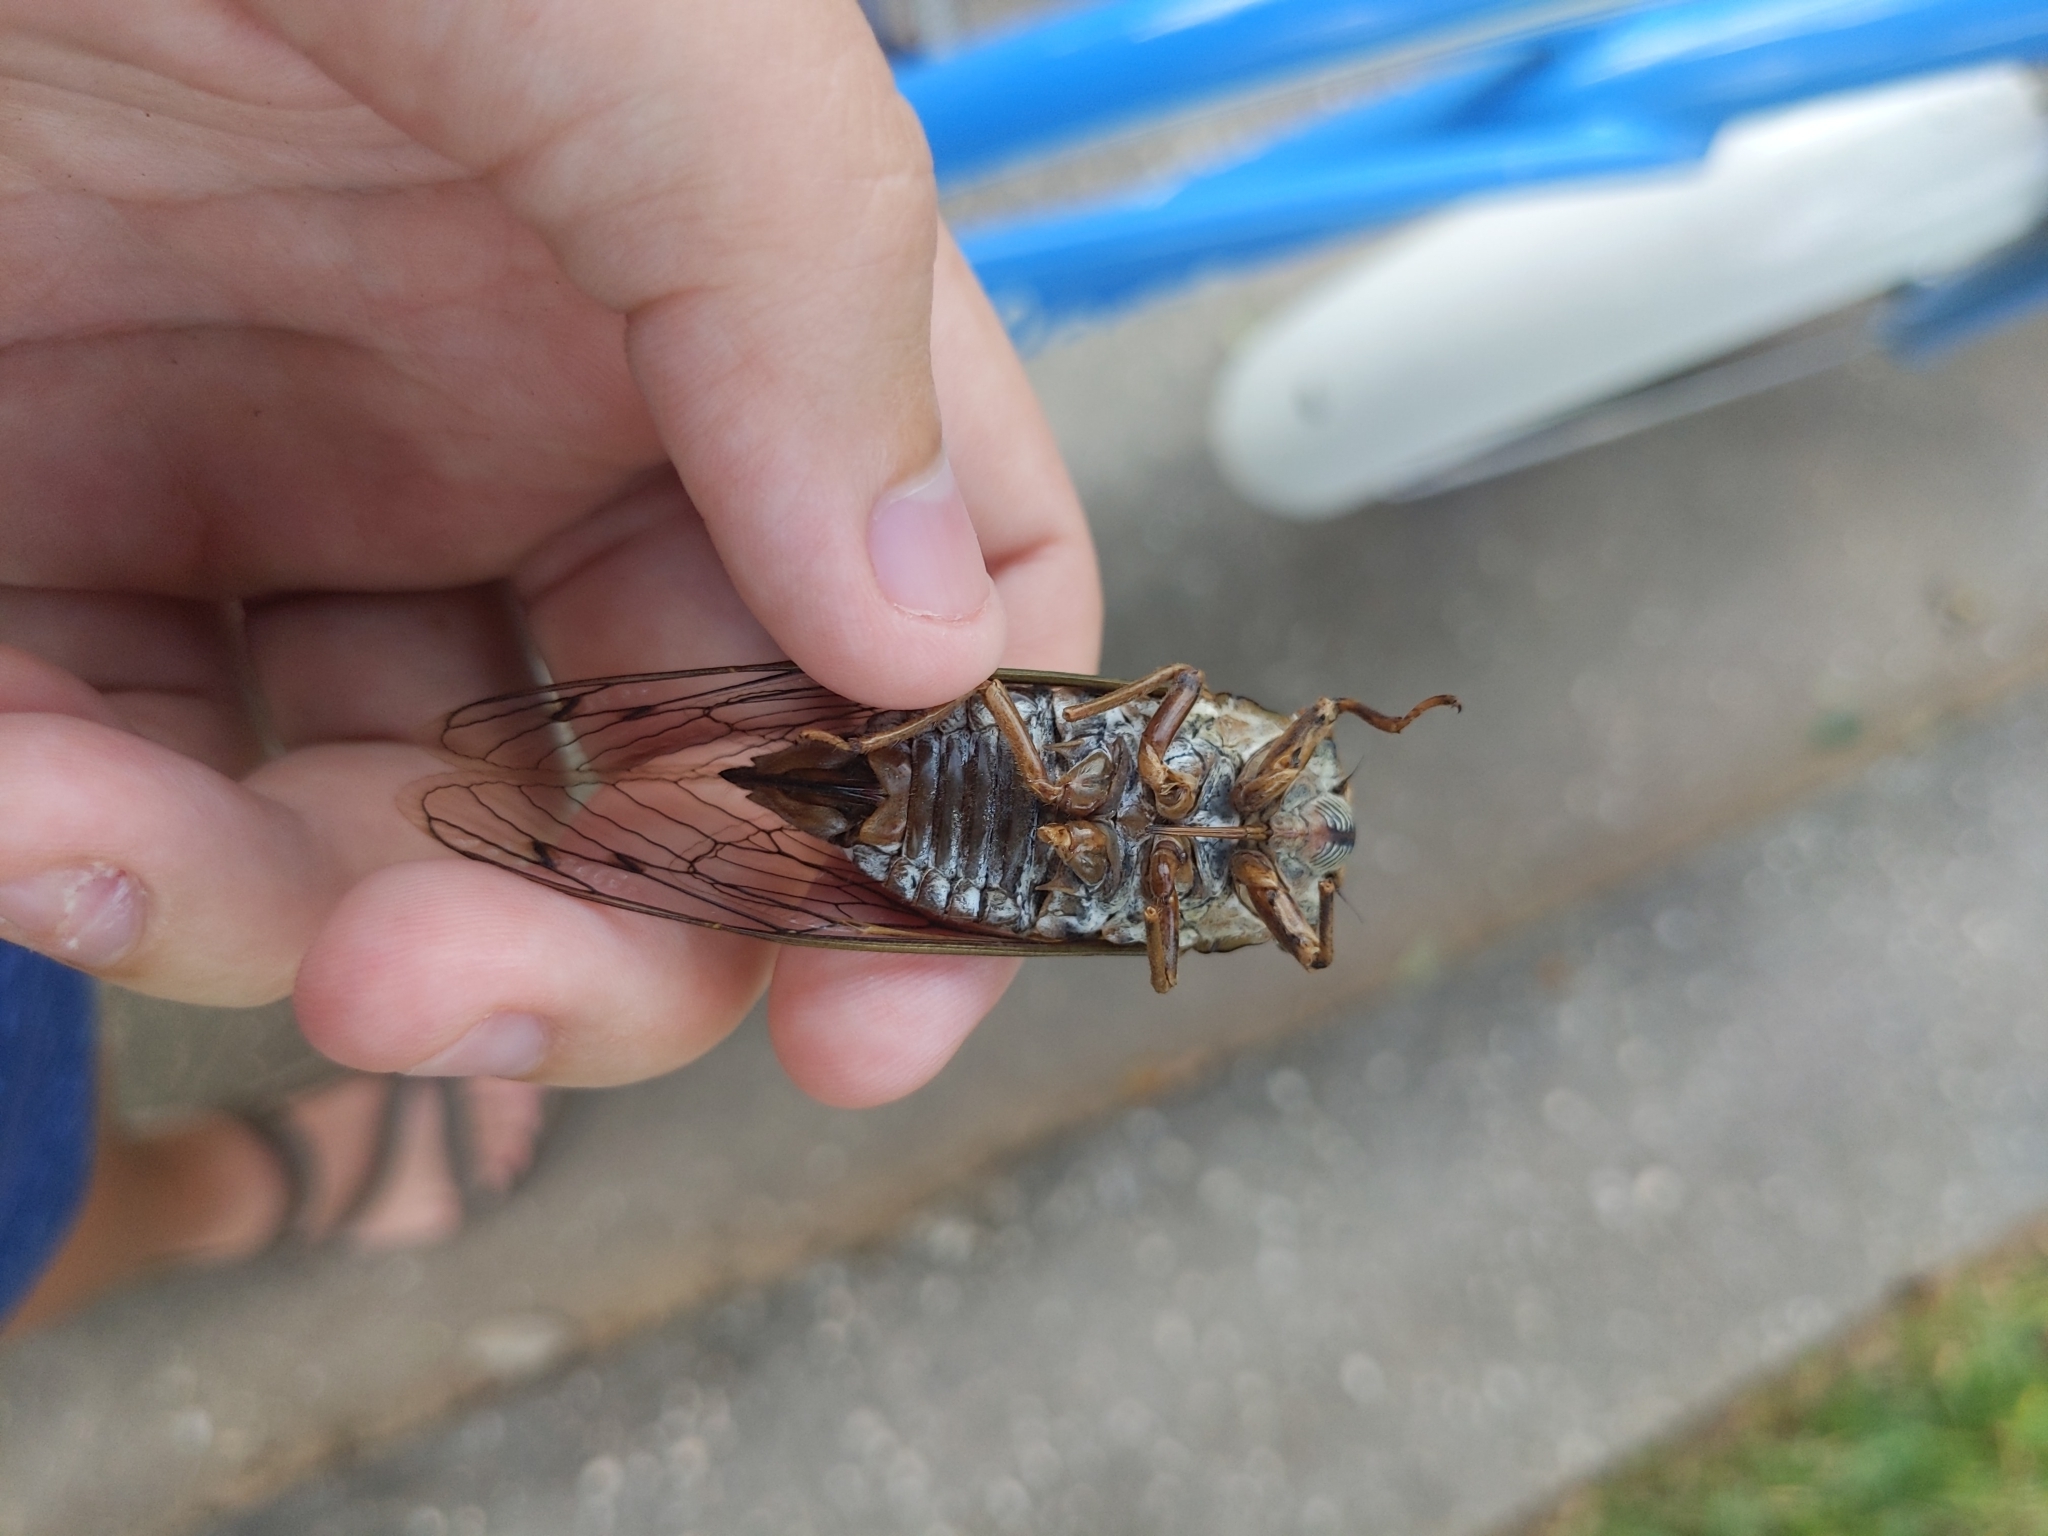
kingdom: Animalia
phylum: Arthropoda
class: Insecta
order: Hemiptera
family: Cicadidae
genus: Megatibicen
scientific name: Megatibicen resh
